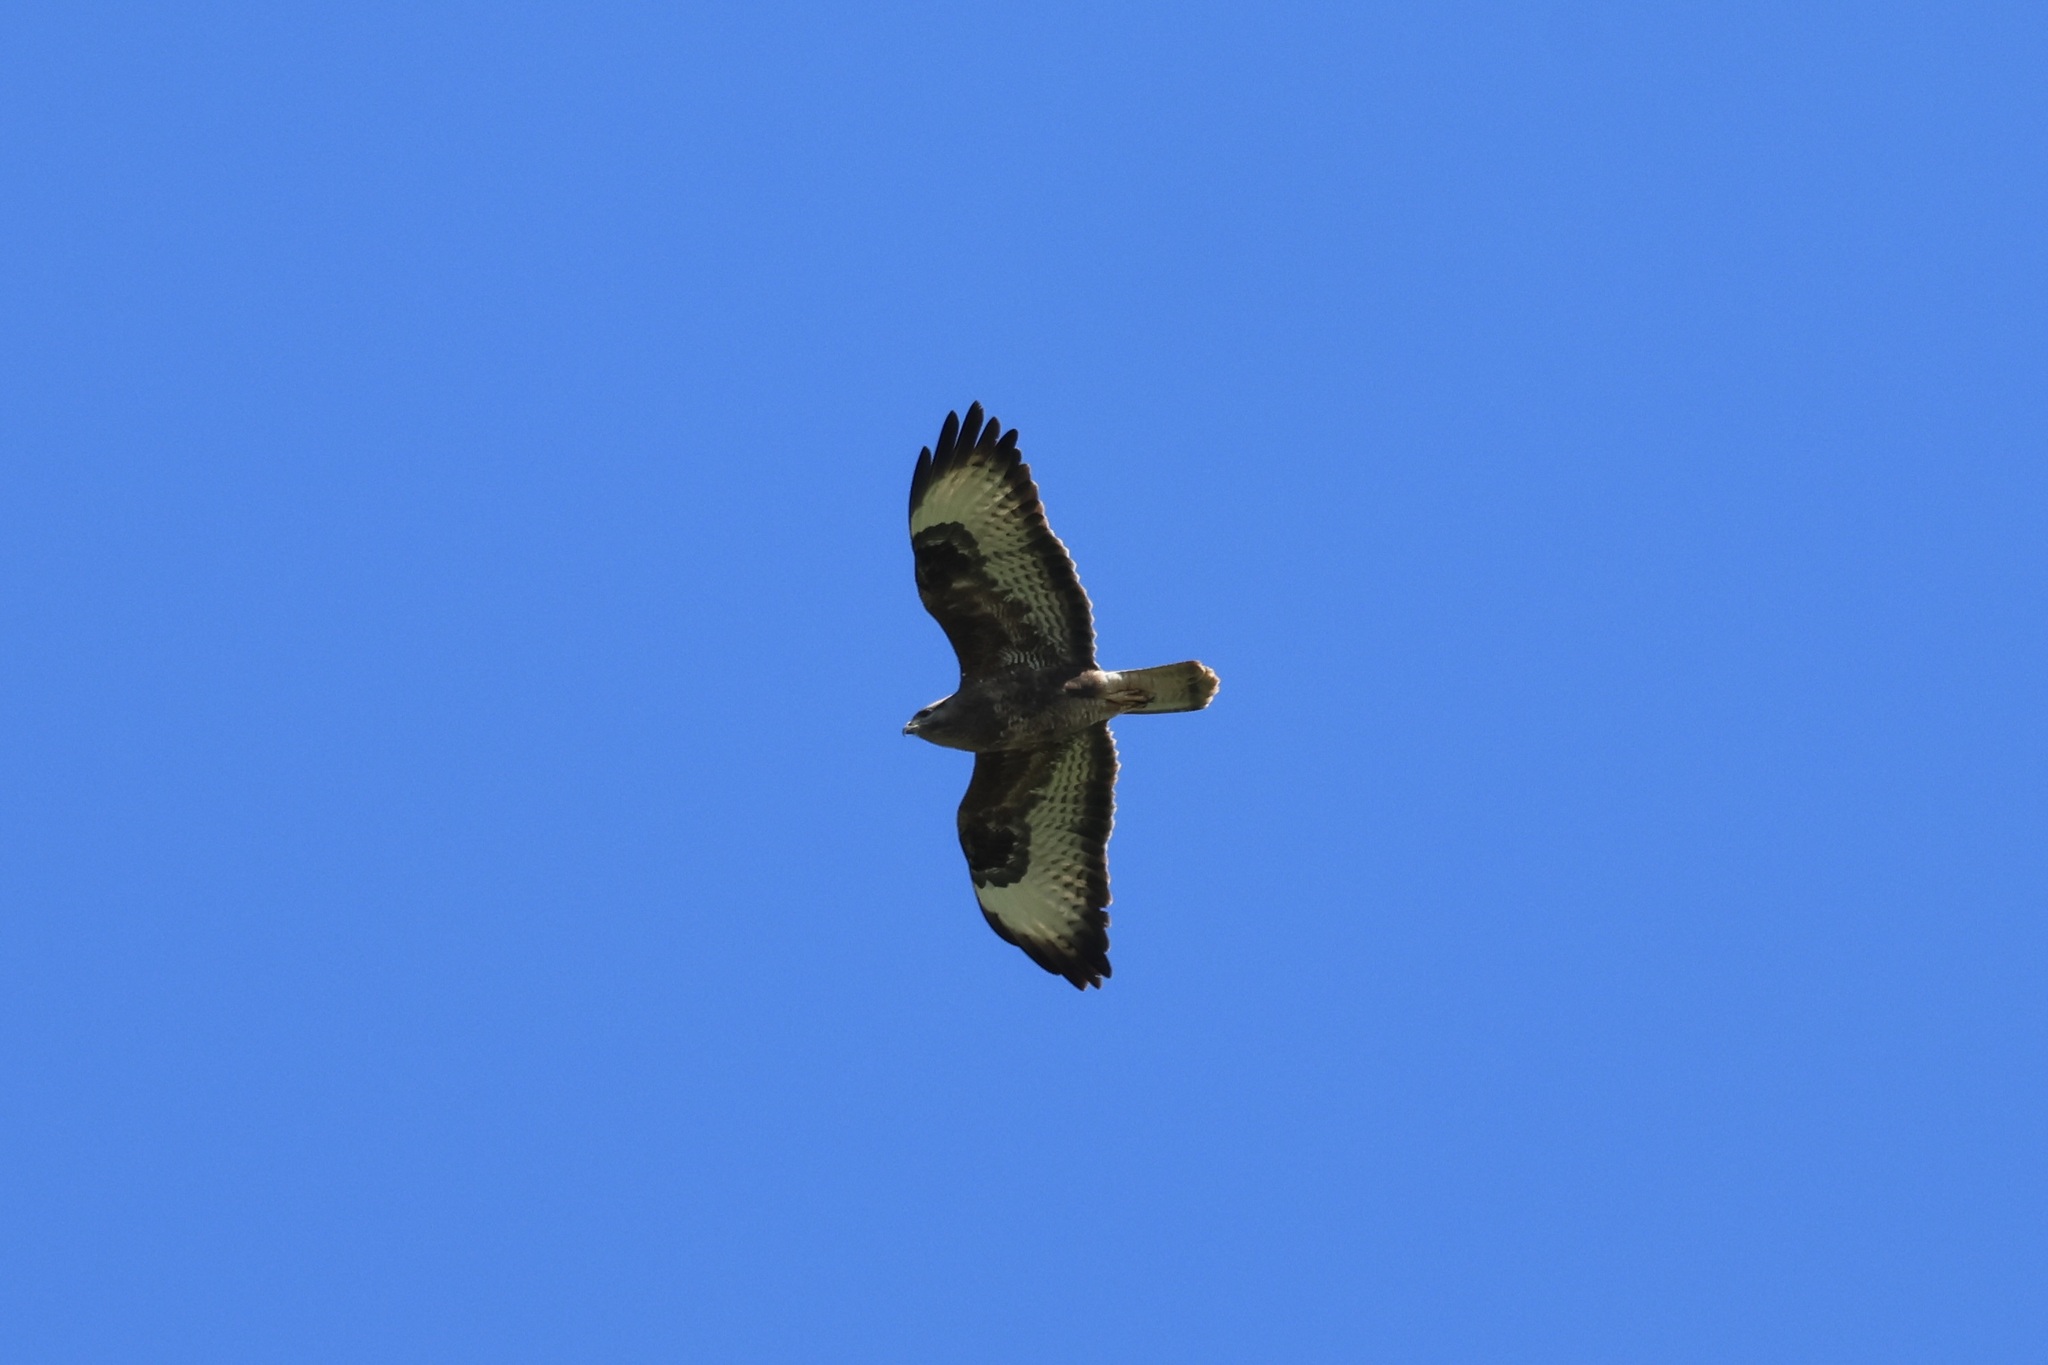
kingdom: Animalia
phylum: Chordata
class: Aves
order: Accipitriformes
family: Accipitridae
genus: Buteo
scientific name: Buteo buteo
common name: Common buzzard
